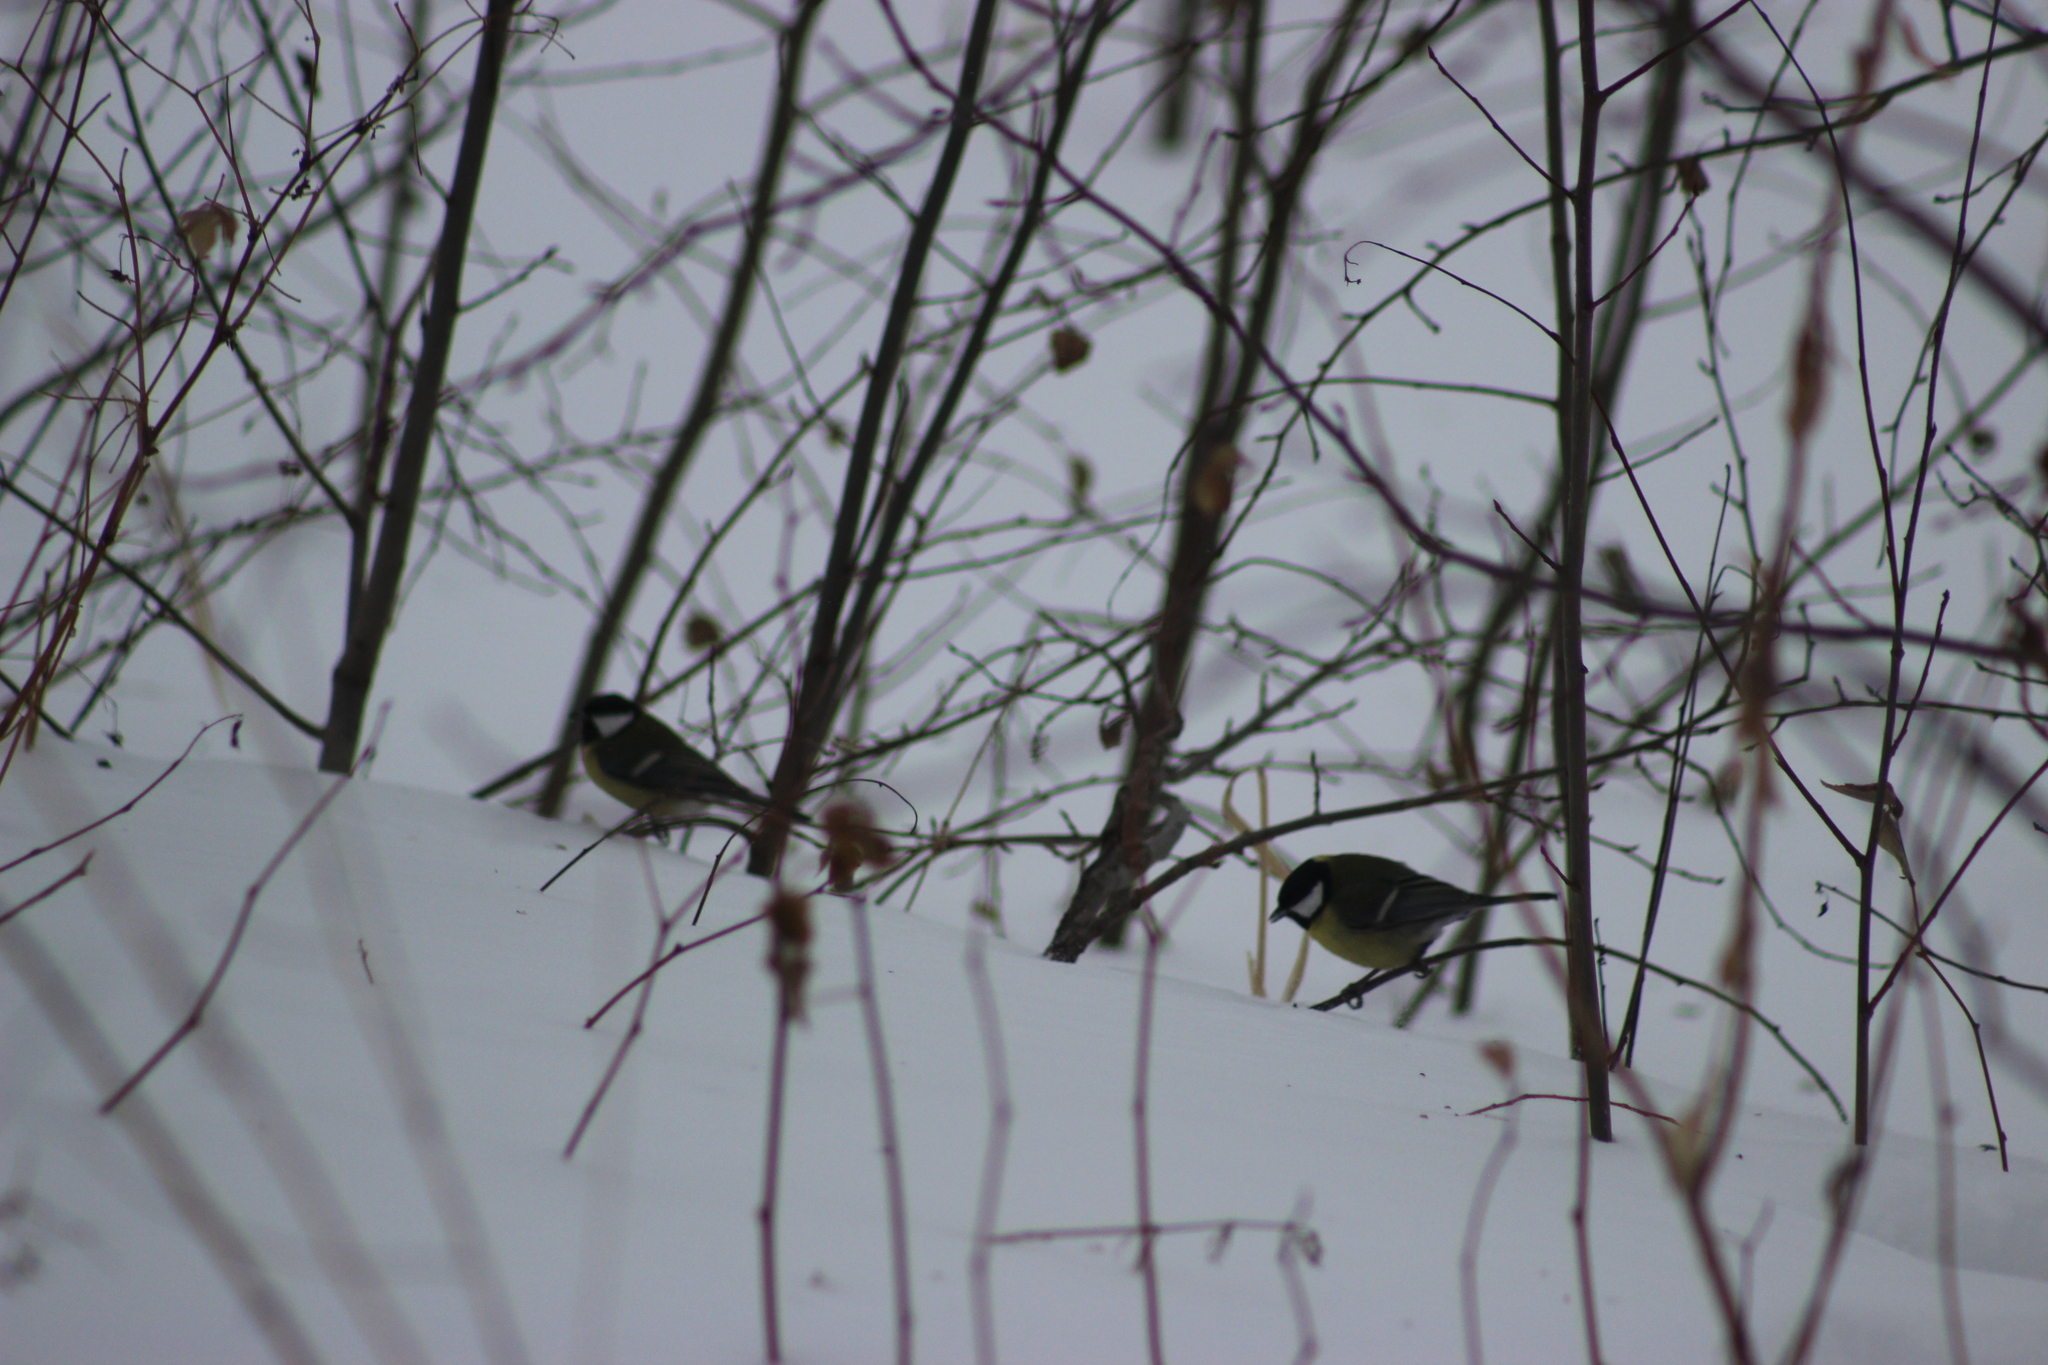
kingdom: Animalia
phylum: Chordata
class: Aves
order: Passeriformes
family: Paridae
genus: Parus
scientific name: Parus major
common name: Great tit
